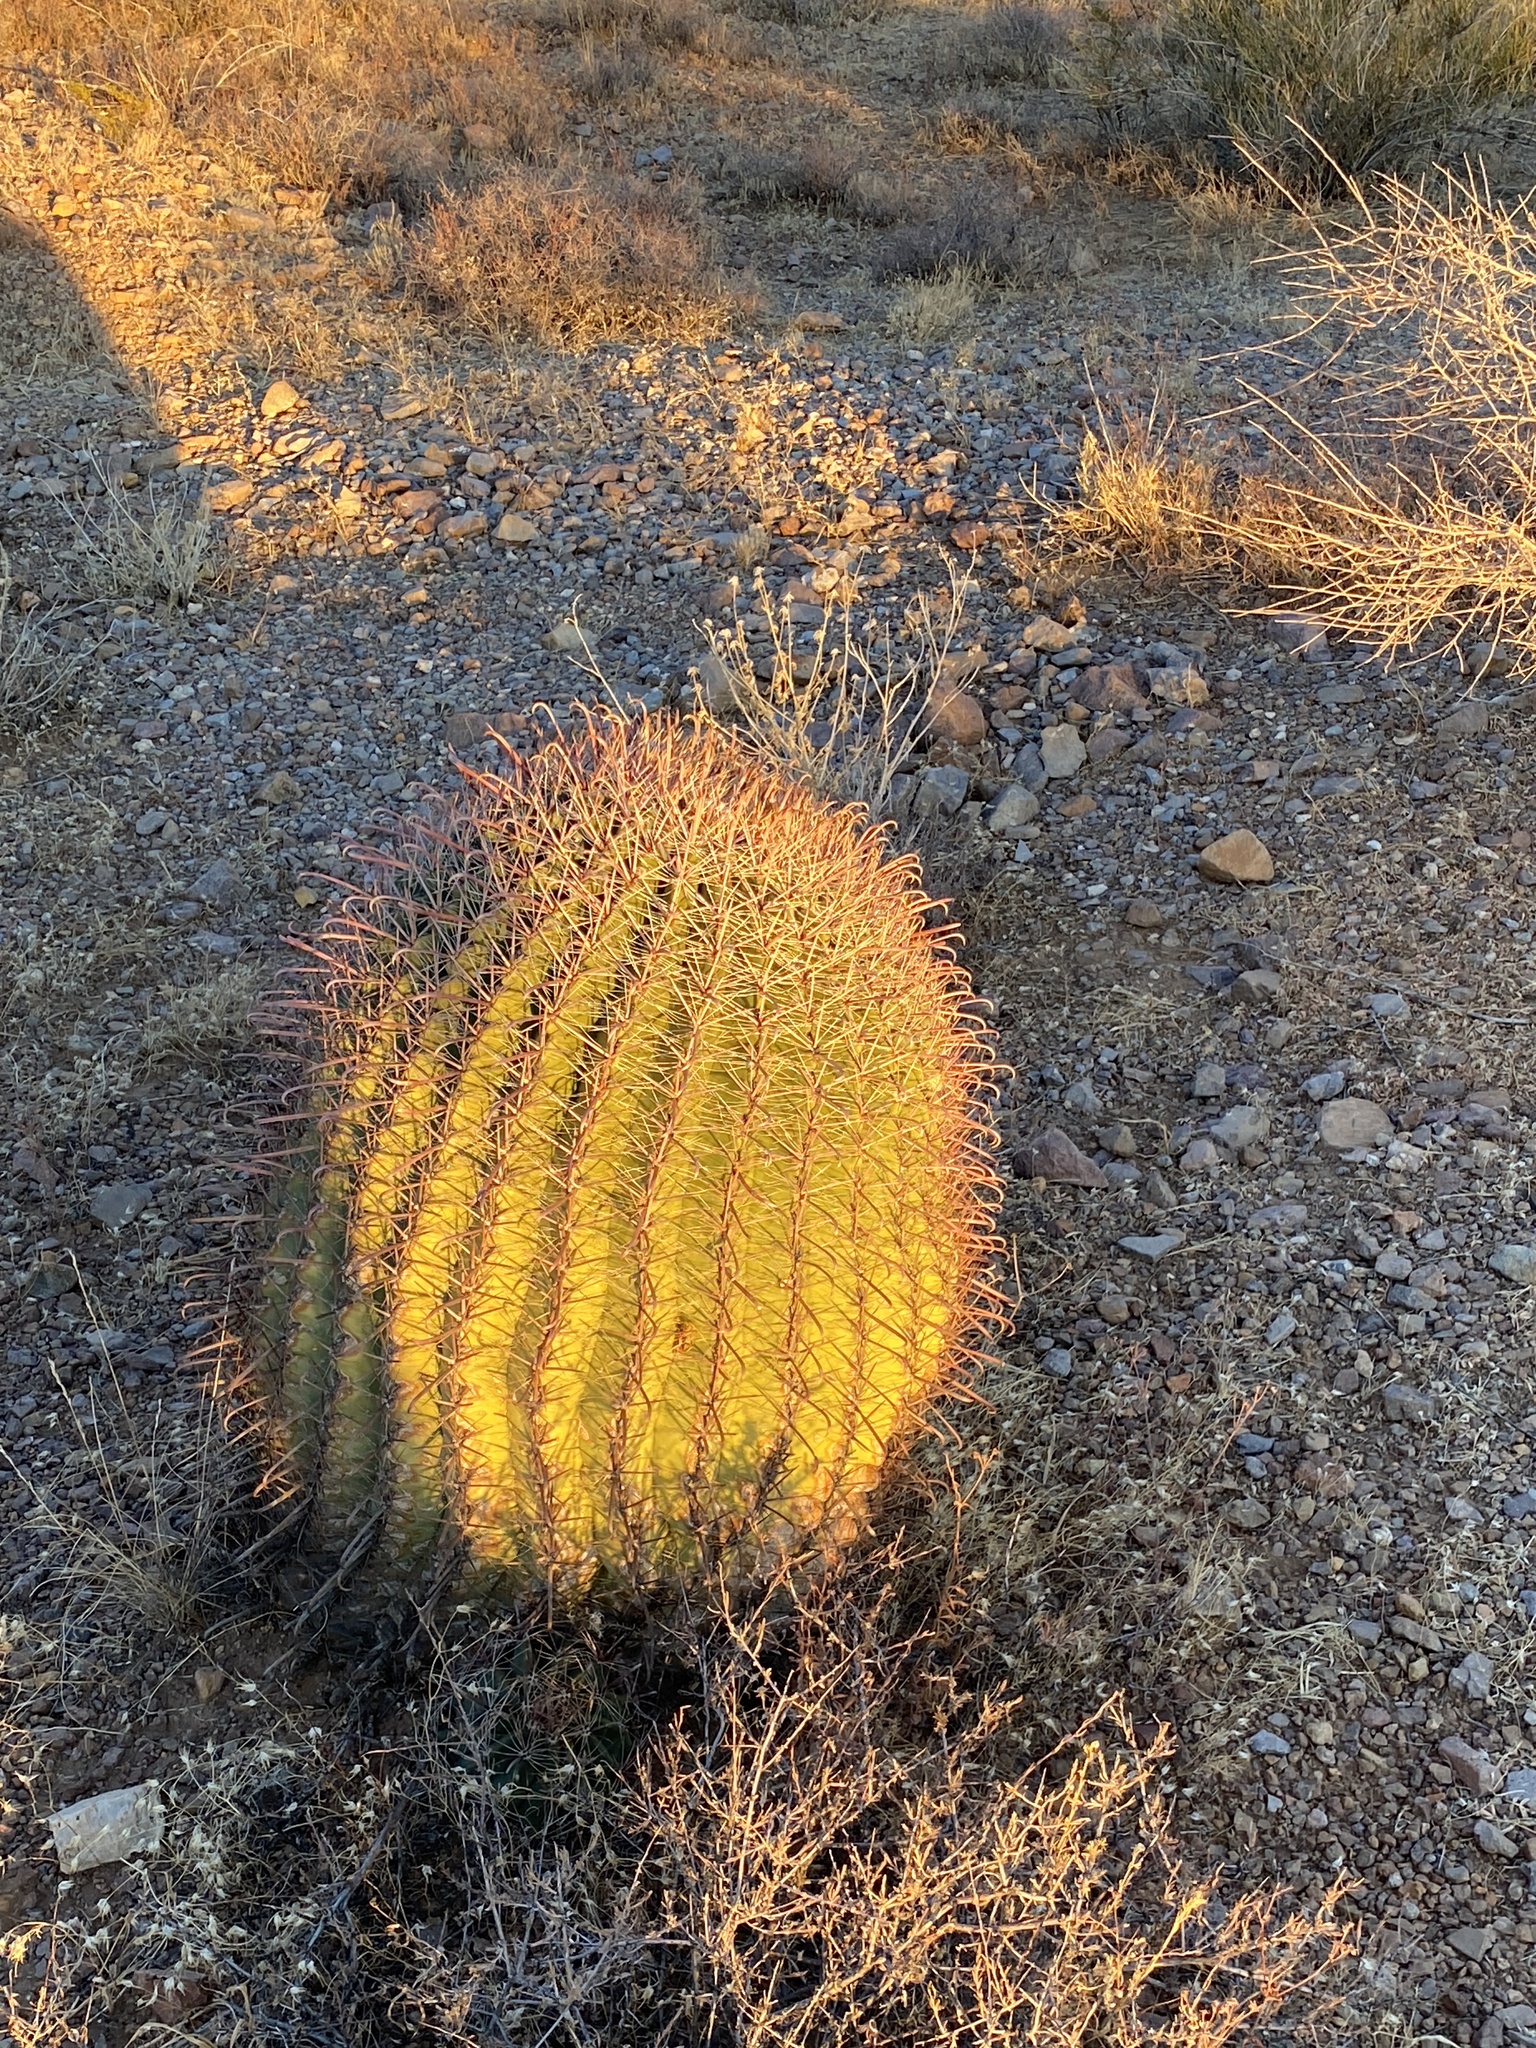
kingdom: Plantae
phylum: Tracheophyta
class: Magnoliopsida
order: Caryophyllales
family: Cactaceae
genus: Ferocactus
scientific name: Ferocactus wislizeni
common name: Candy barrel cactus
